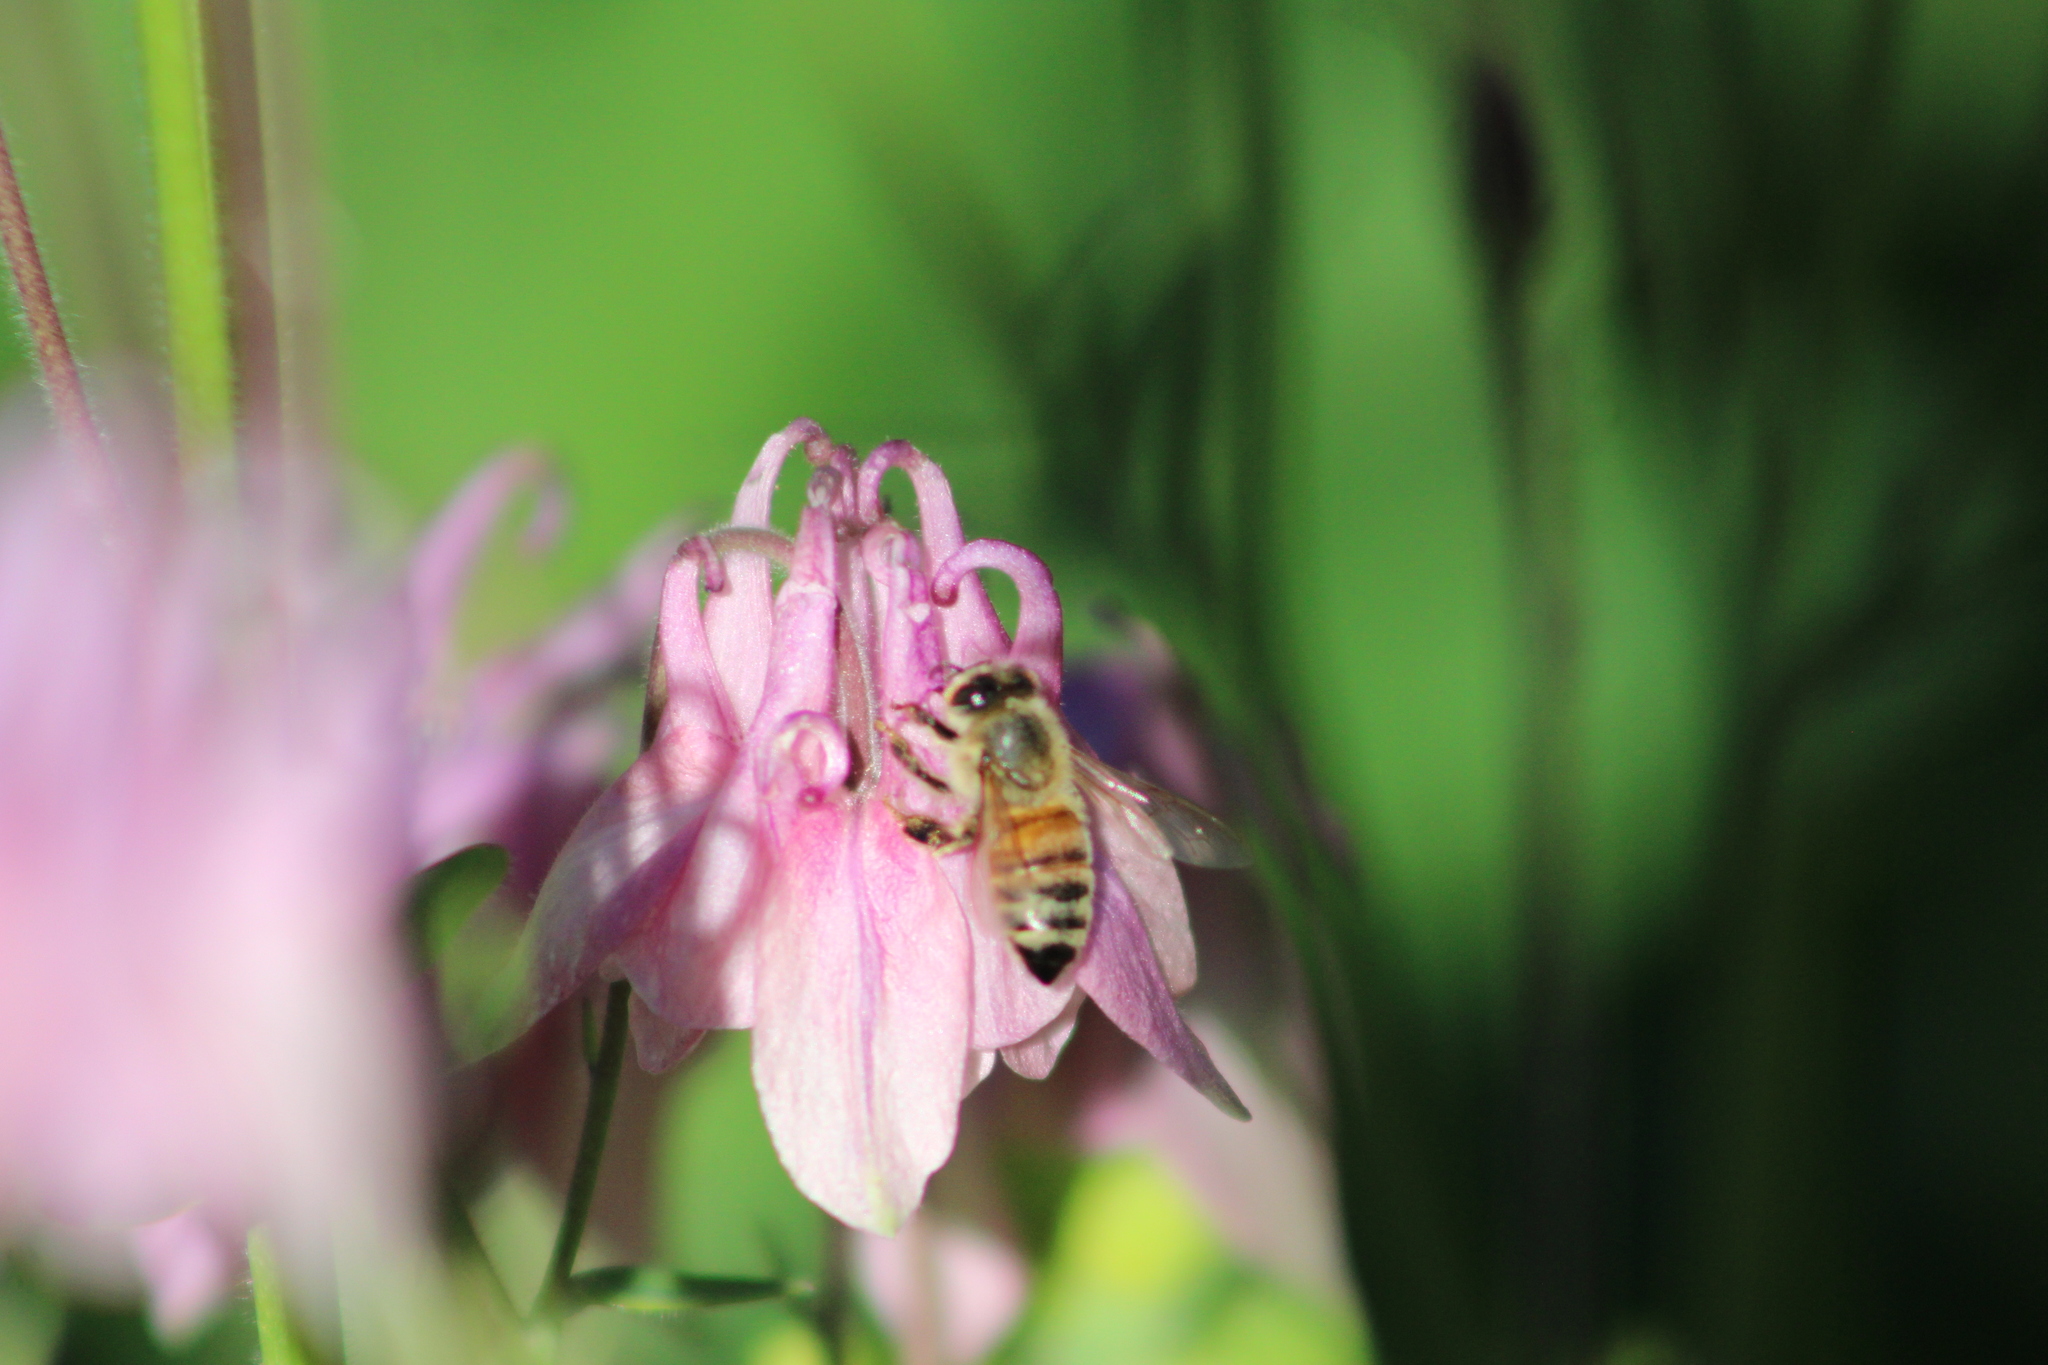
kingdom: Animalia
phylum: Arthropoda
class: Insecta
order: Hymenoptera
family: Apidae
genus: Apis
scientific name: Apis mellifera
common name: Honey bee
